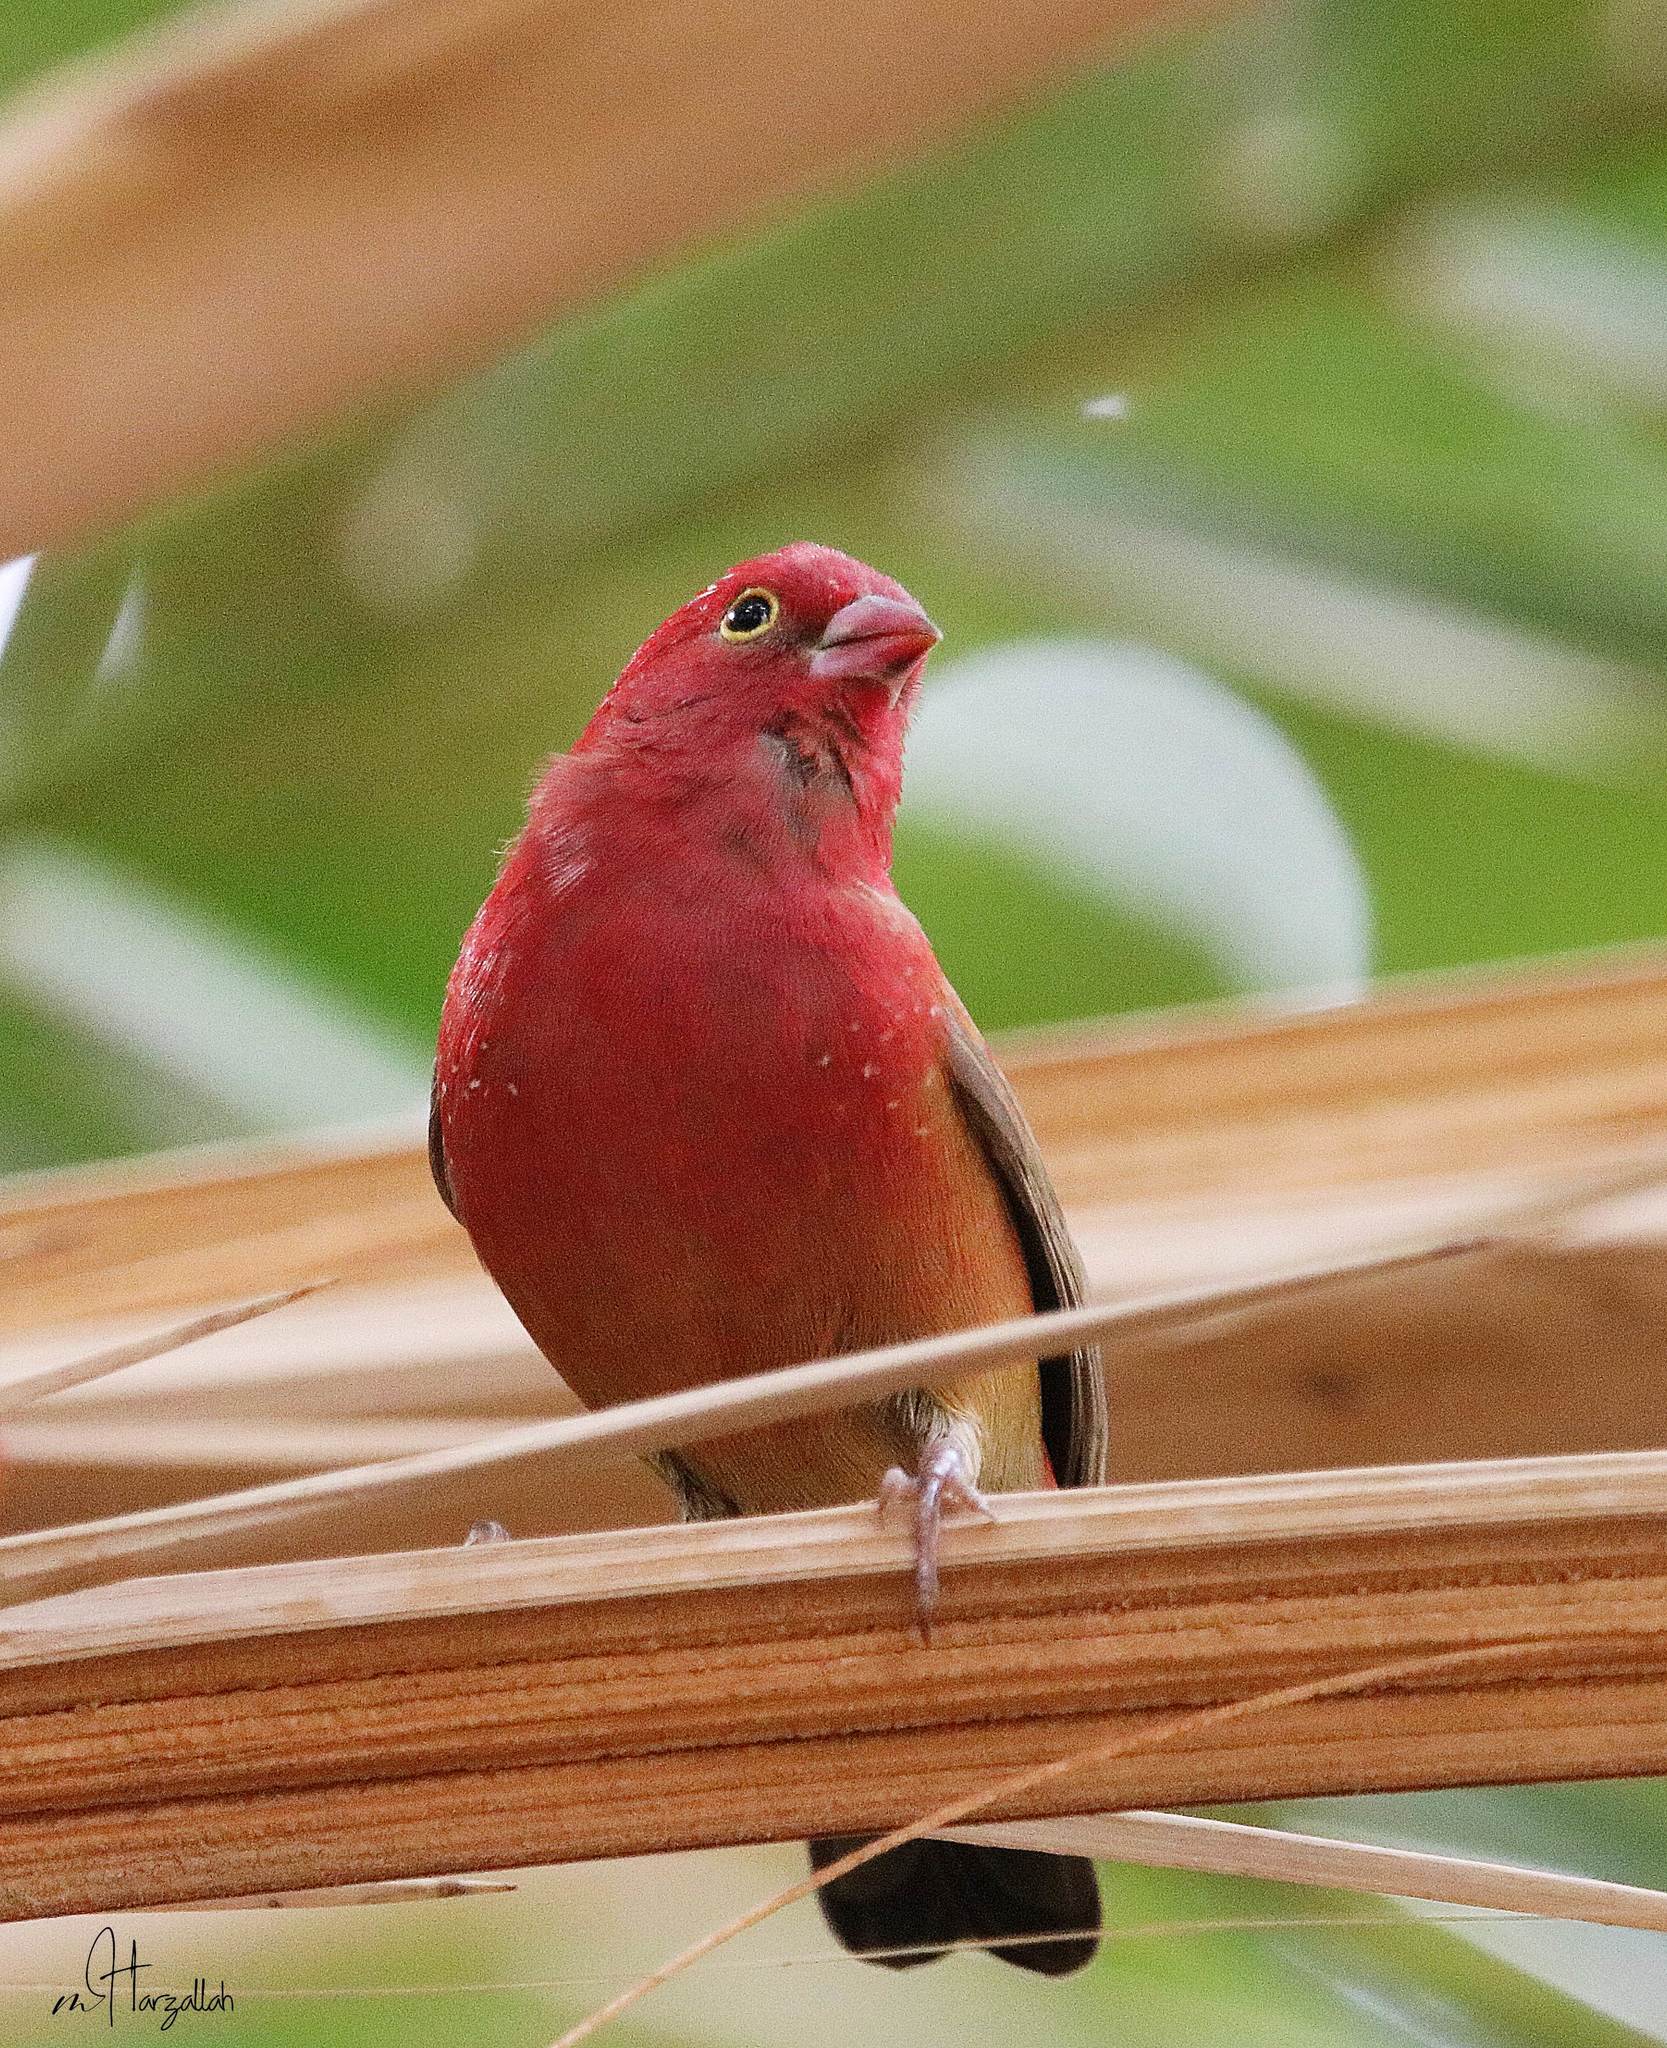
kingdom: Animalia
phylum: Chordata
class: Aves
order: Passeriformes
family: Estrildidae
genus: Lagonosticta
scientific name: Lagonosticta senegala
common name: Red-billed firefinch
